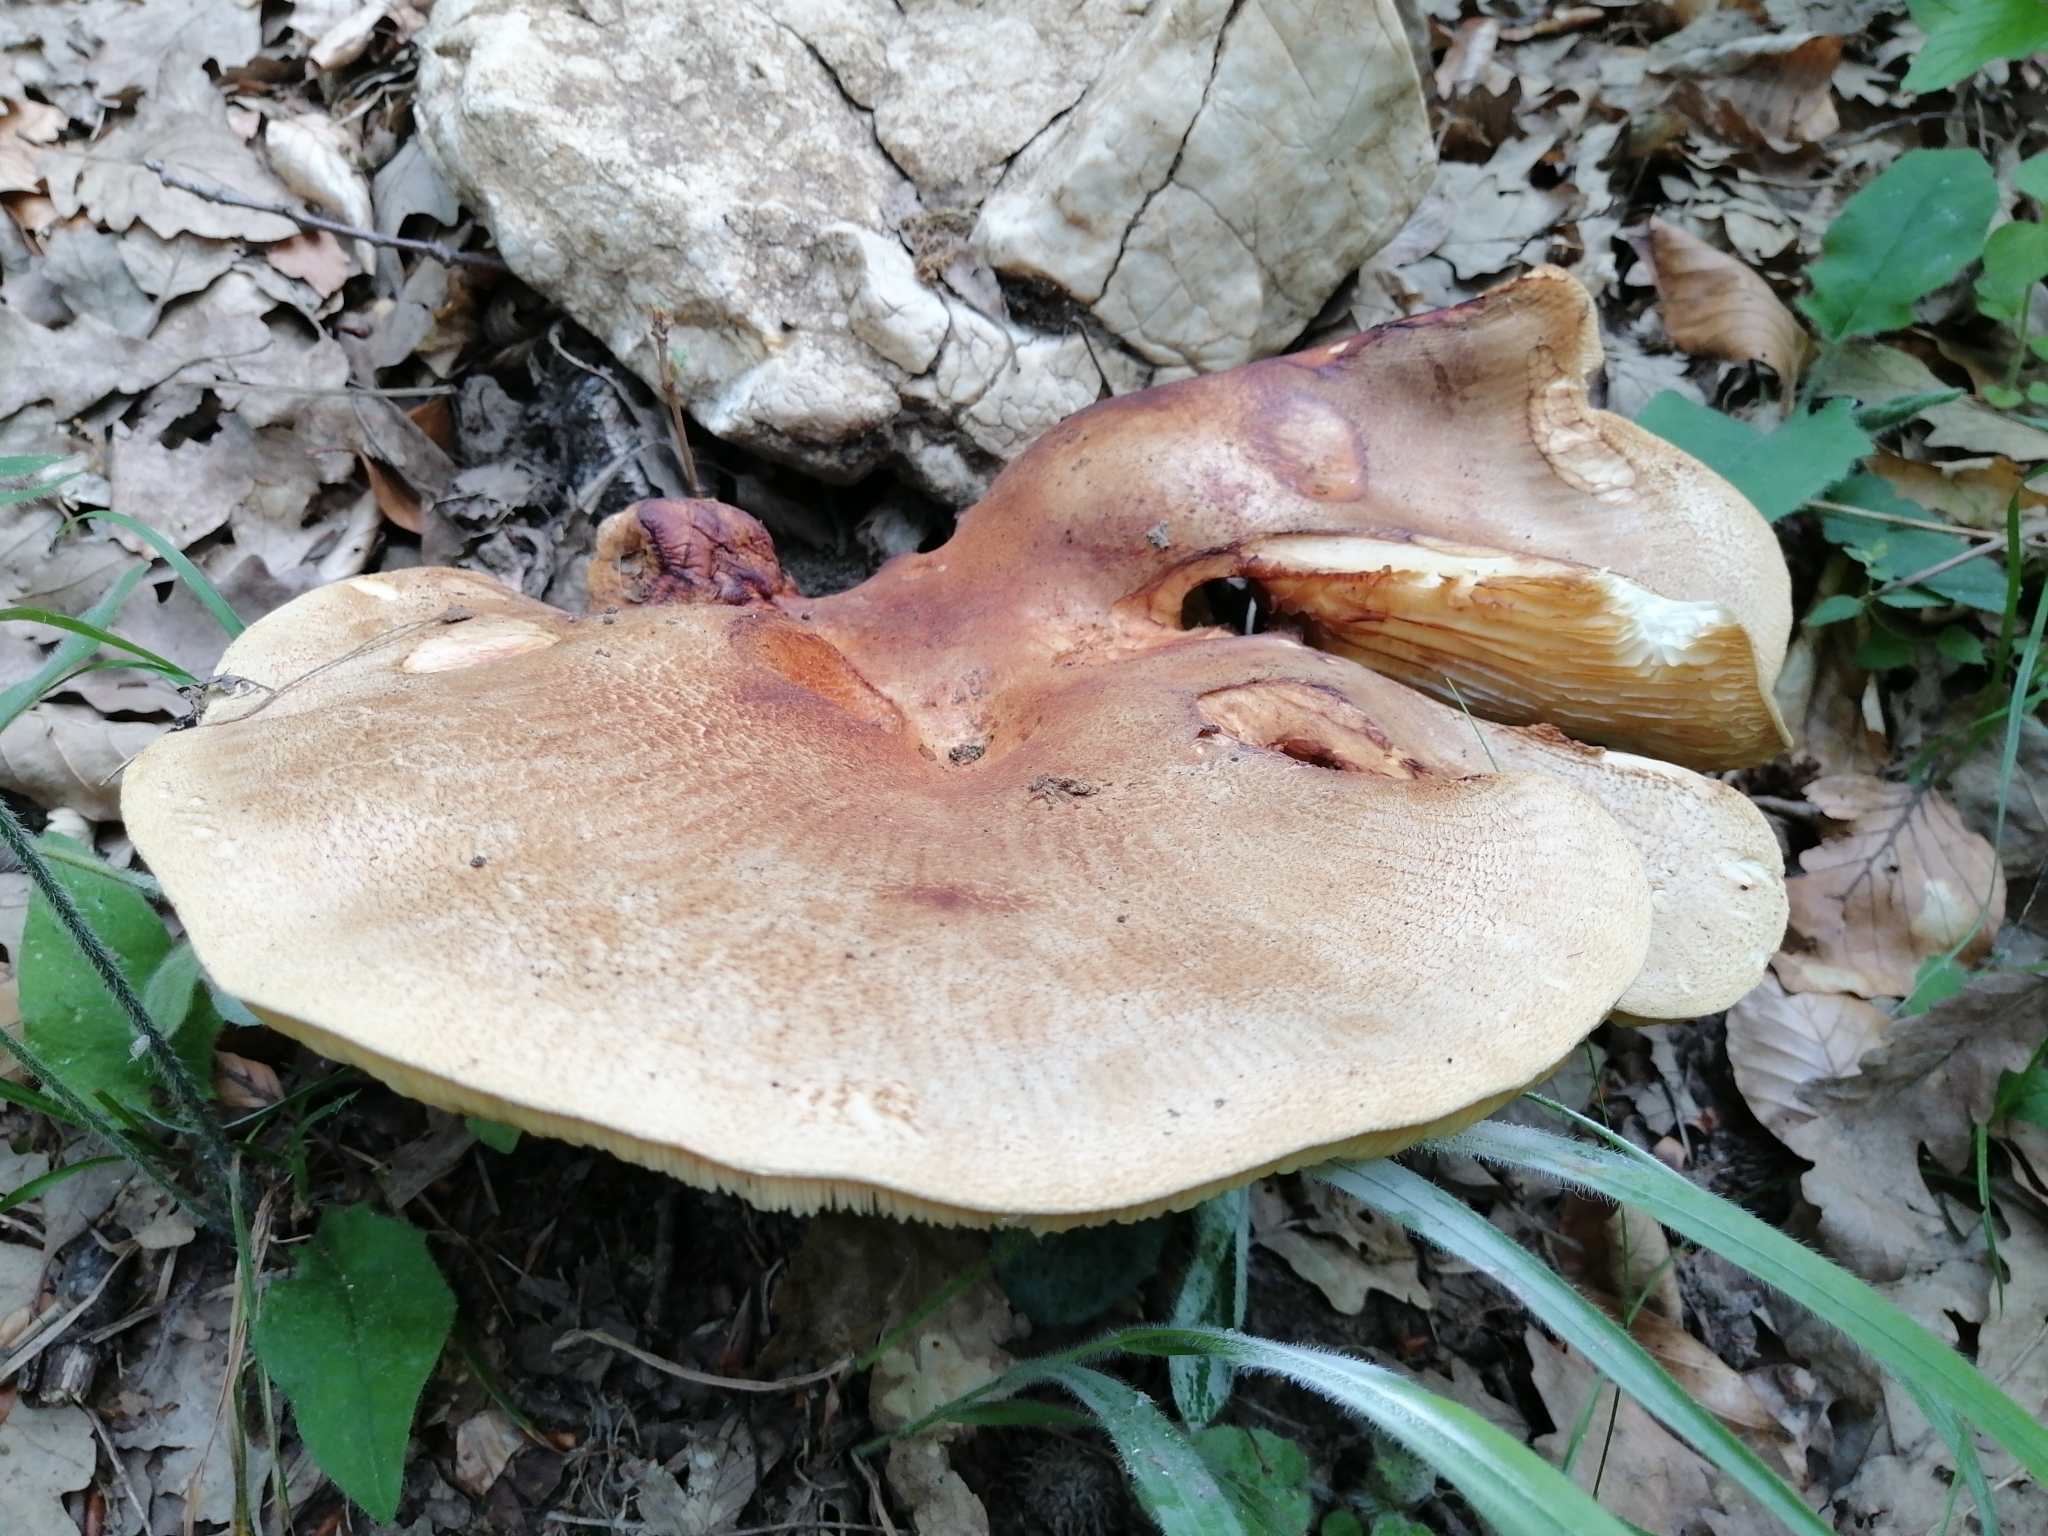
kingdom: Fungi
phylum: Basidiomycota
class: Agaricomycetes
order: Agaricales
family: Pseudoclitocybaceae
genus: Pogonoloma
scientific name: Pogonoloma macrorhizum
